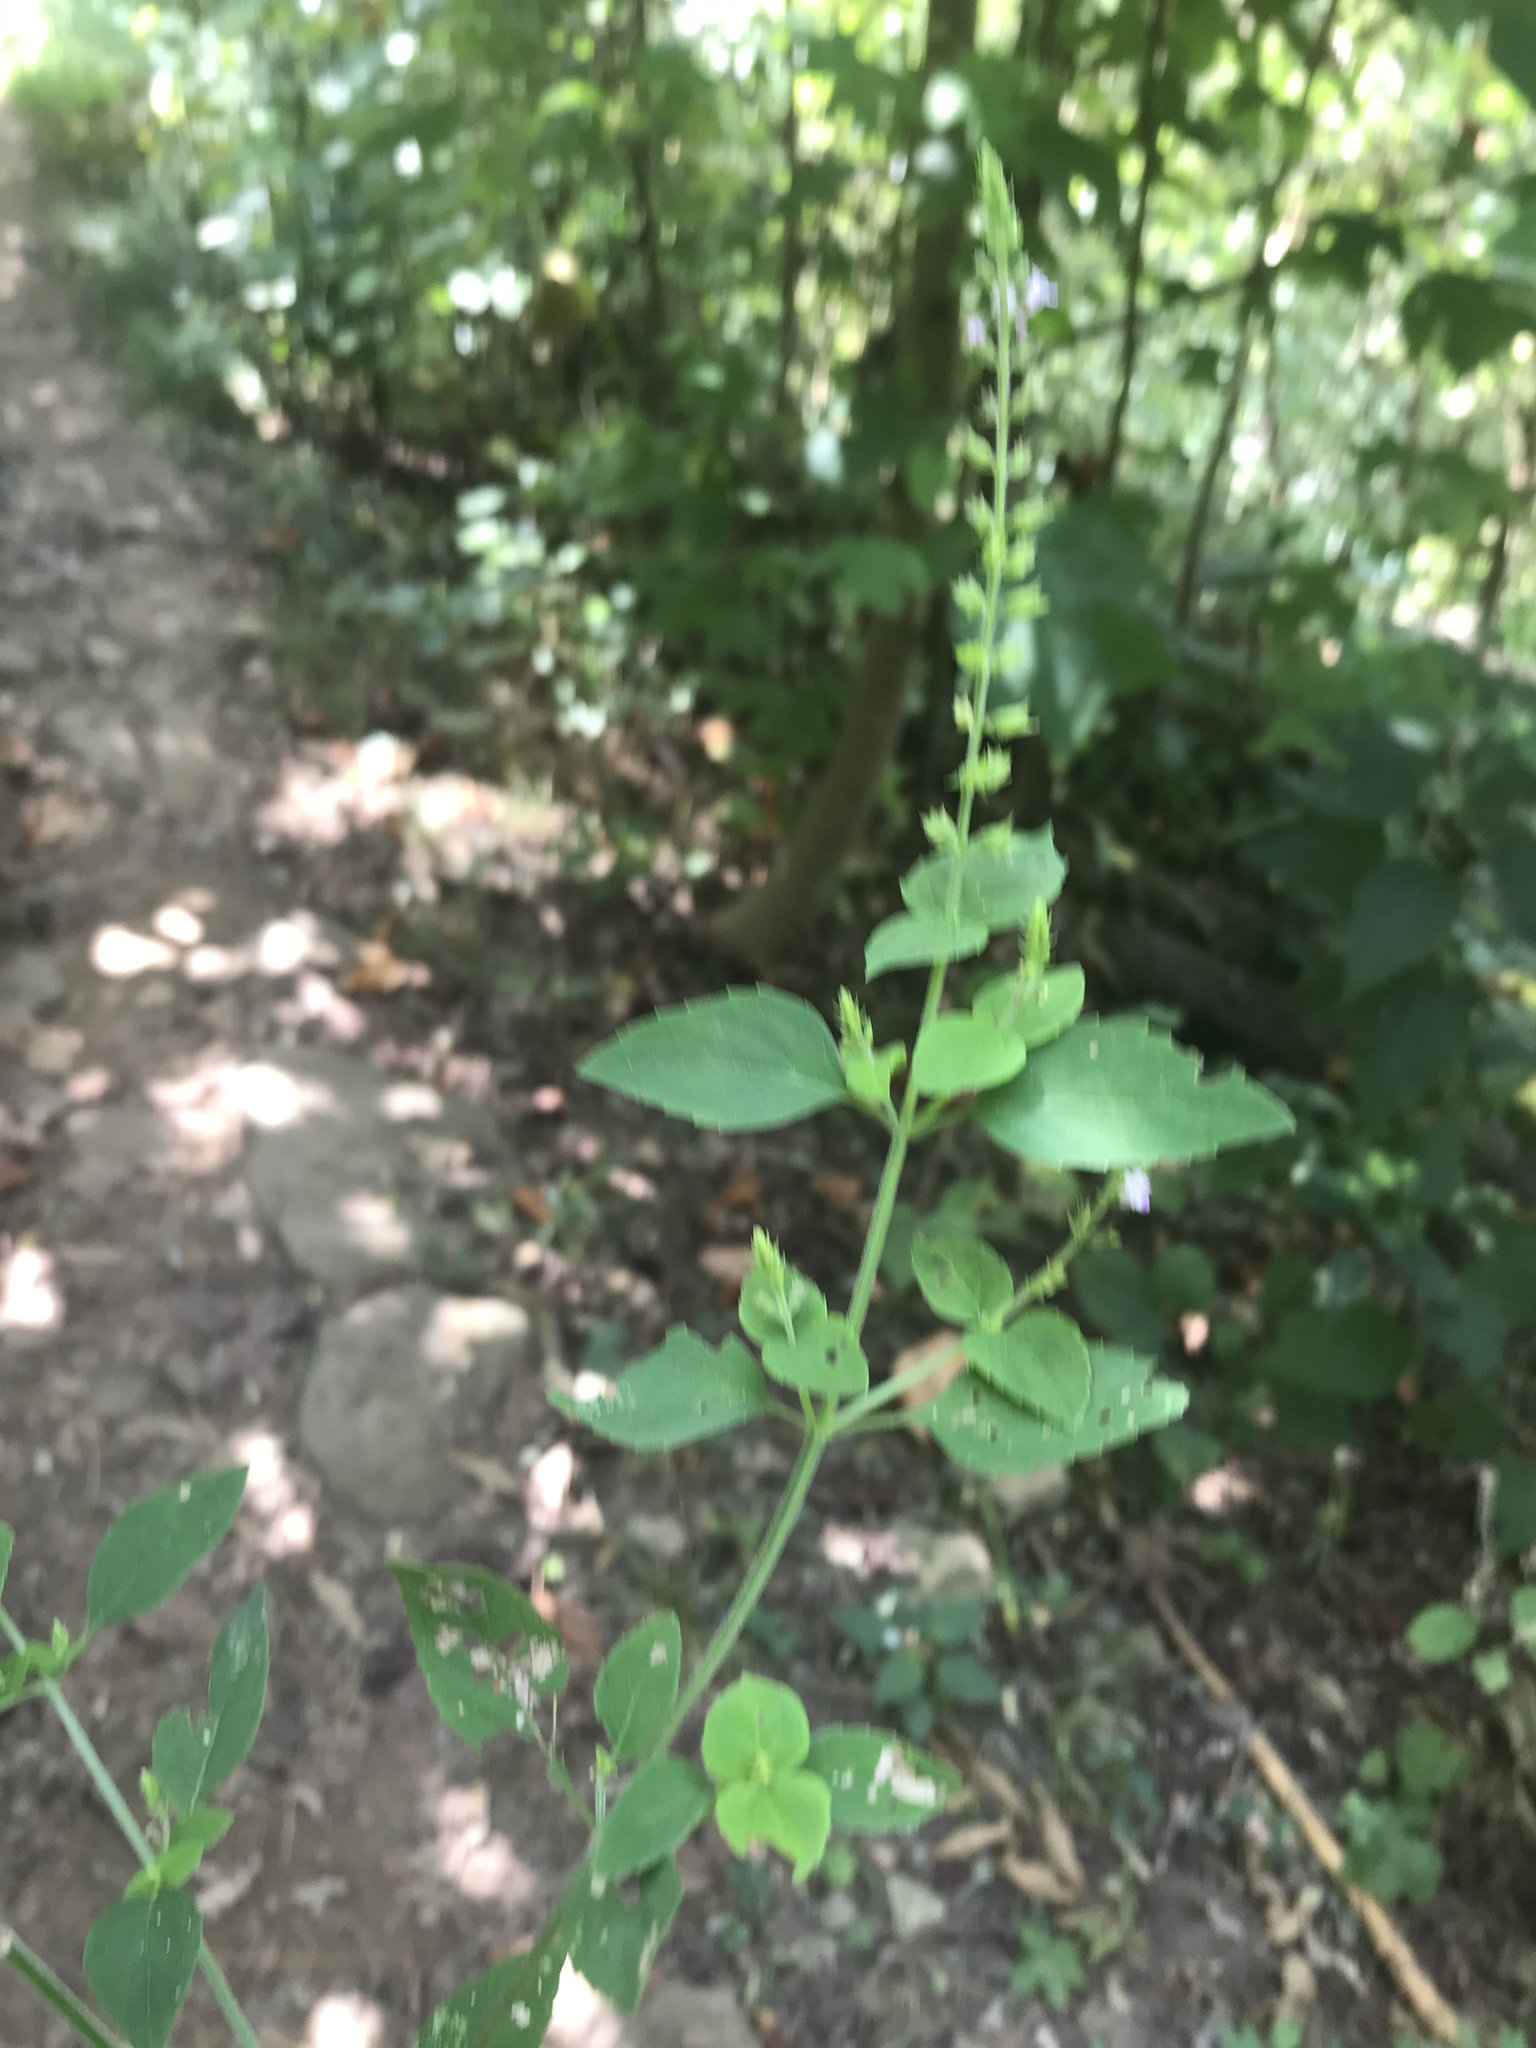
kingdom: Plantae
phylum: Tracheophyta
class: Magnoliopsida
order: Lamiales
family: Lamiaceae
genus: Mosla
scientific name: Mosla dianthera
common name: Miniature beefsteakplant
